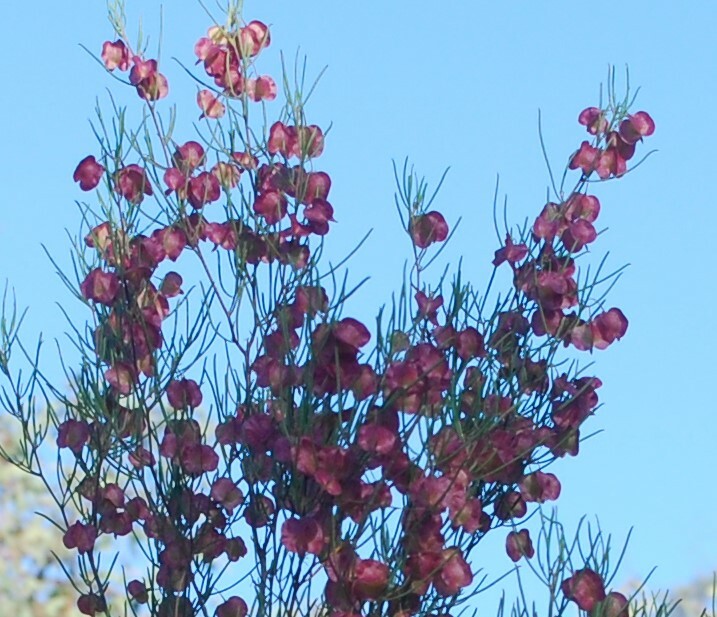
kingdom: Plantae
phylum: Tracheophyta
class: Magnoliopsida
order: Sapindales
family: Sapindaceae
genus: Dodonaea
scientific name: Dodonaea viscosa
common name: Hopbush
